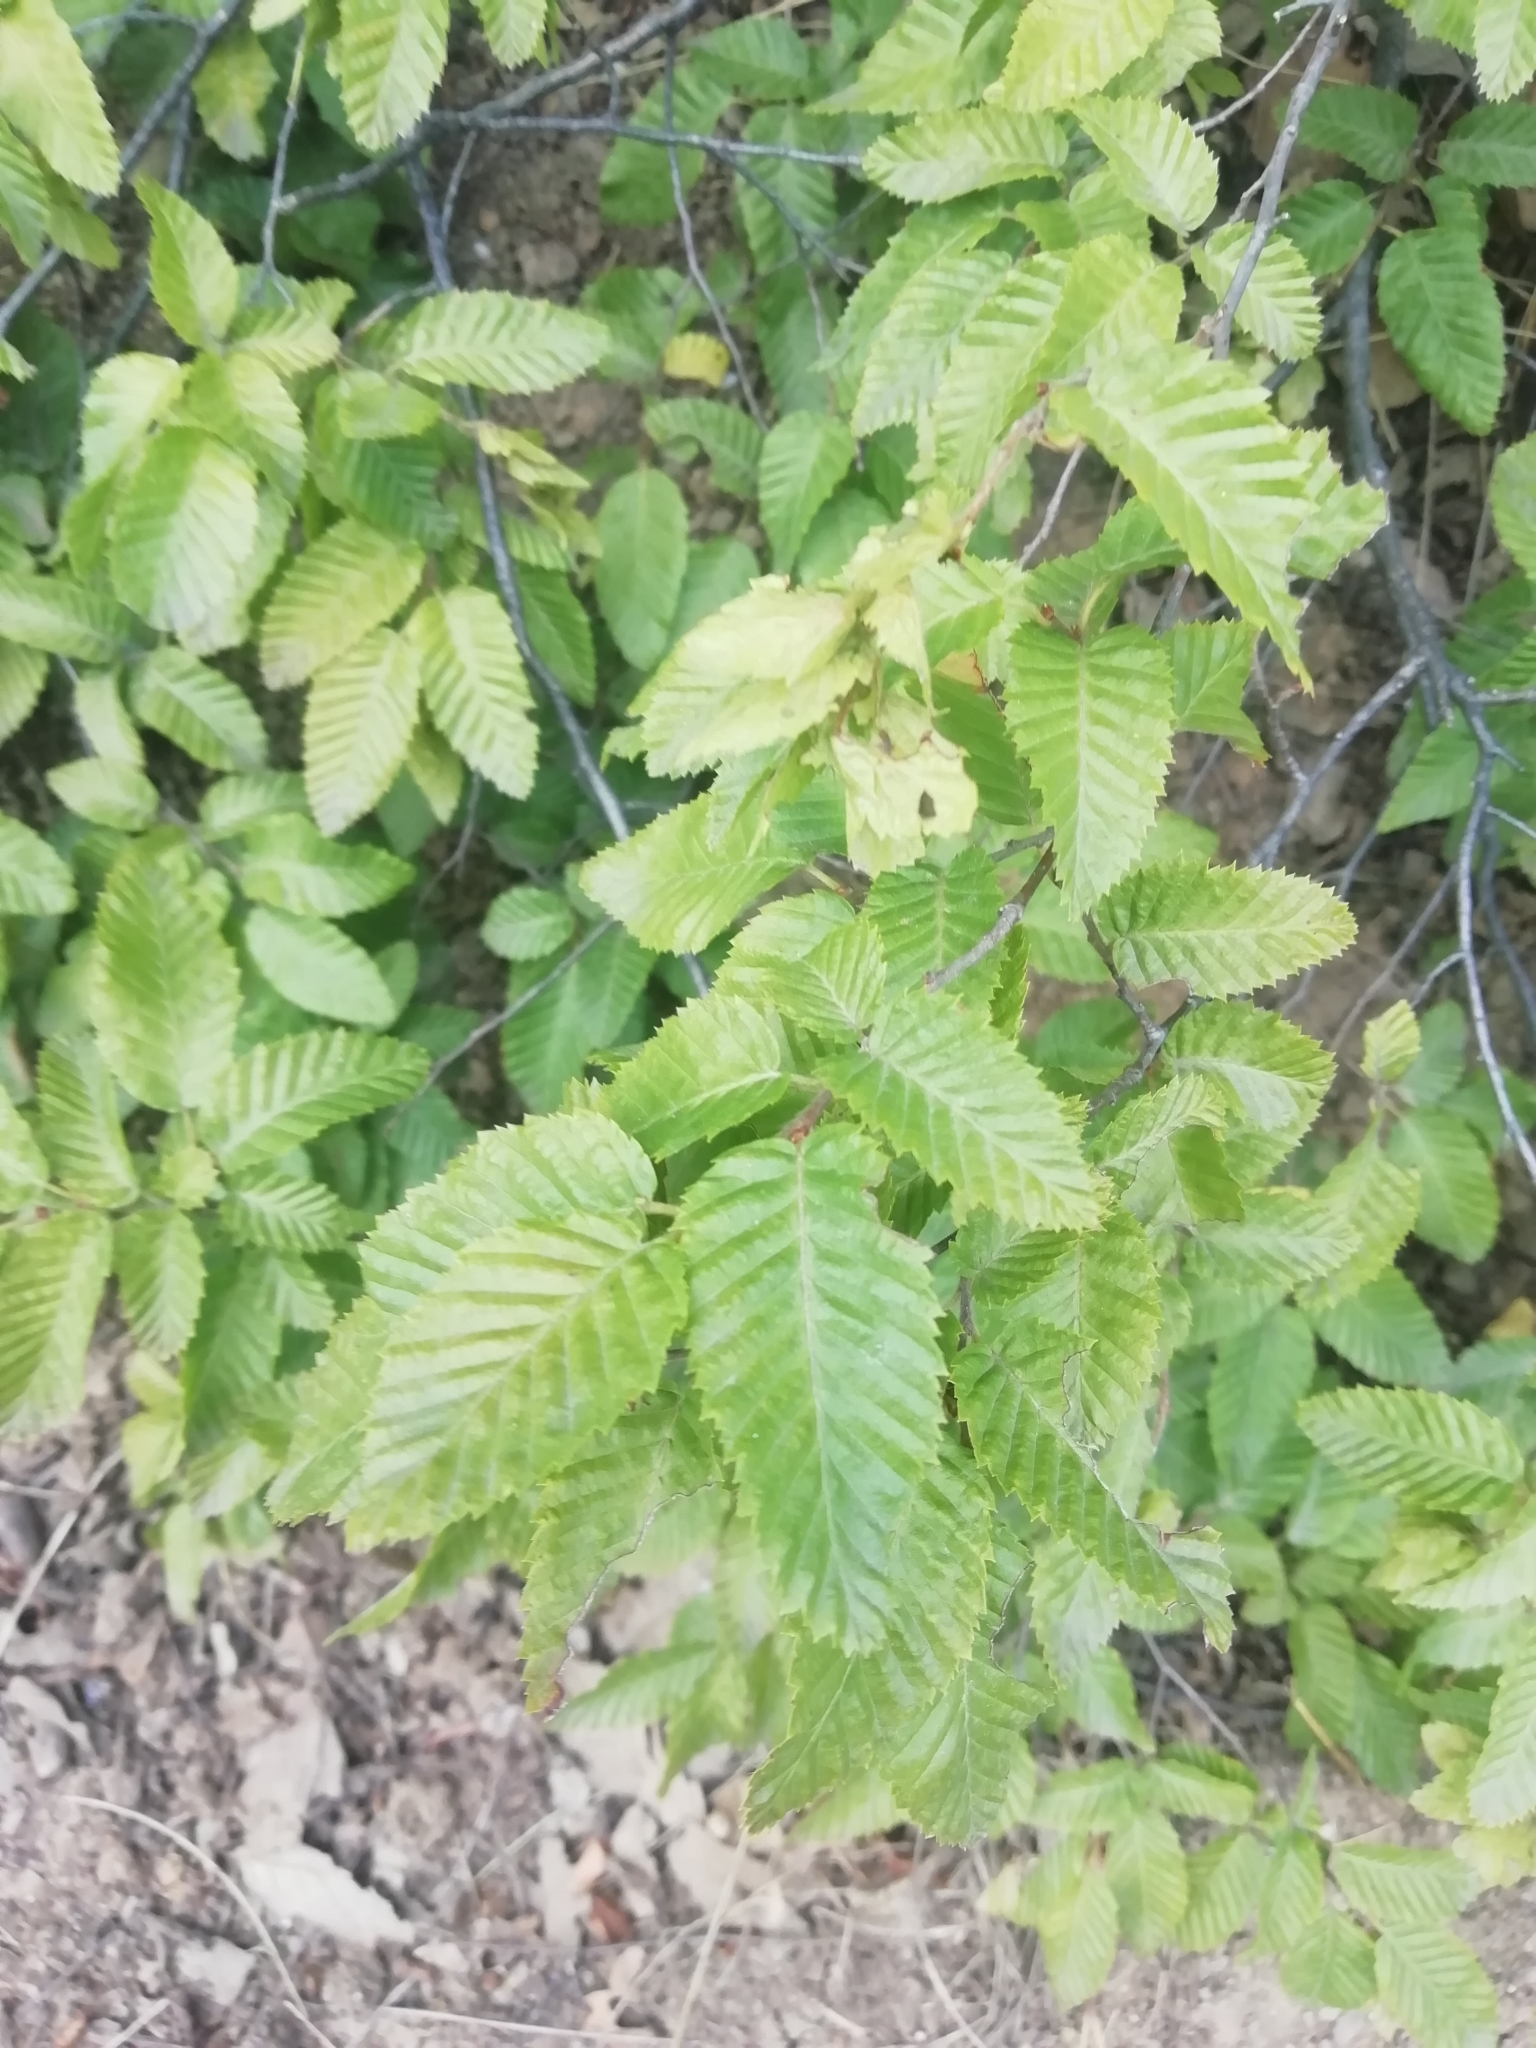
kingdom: Plantae
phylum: Tracheophyta
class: Magnoliopsida
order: Fagales
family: Betulaceae
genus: Carpinus
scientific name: Carpinus orientalis
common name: Eastern hornbeam
